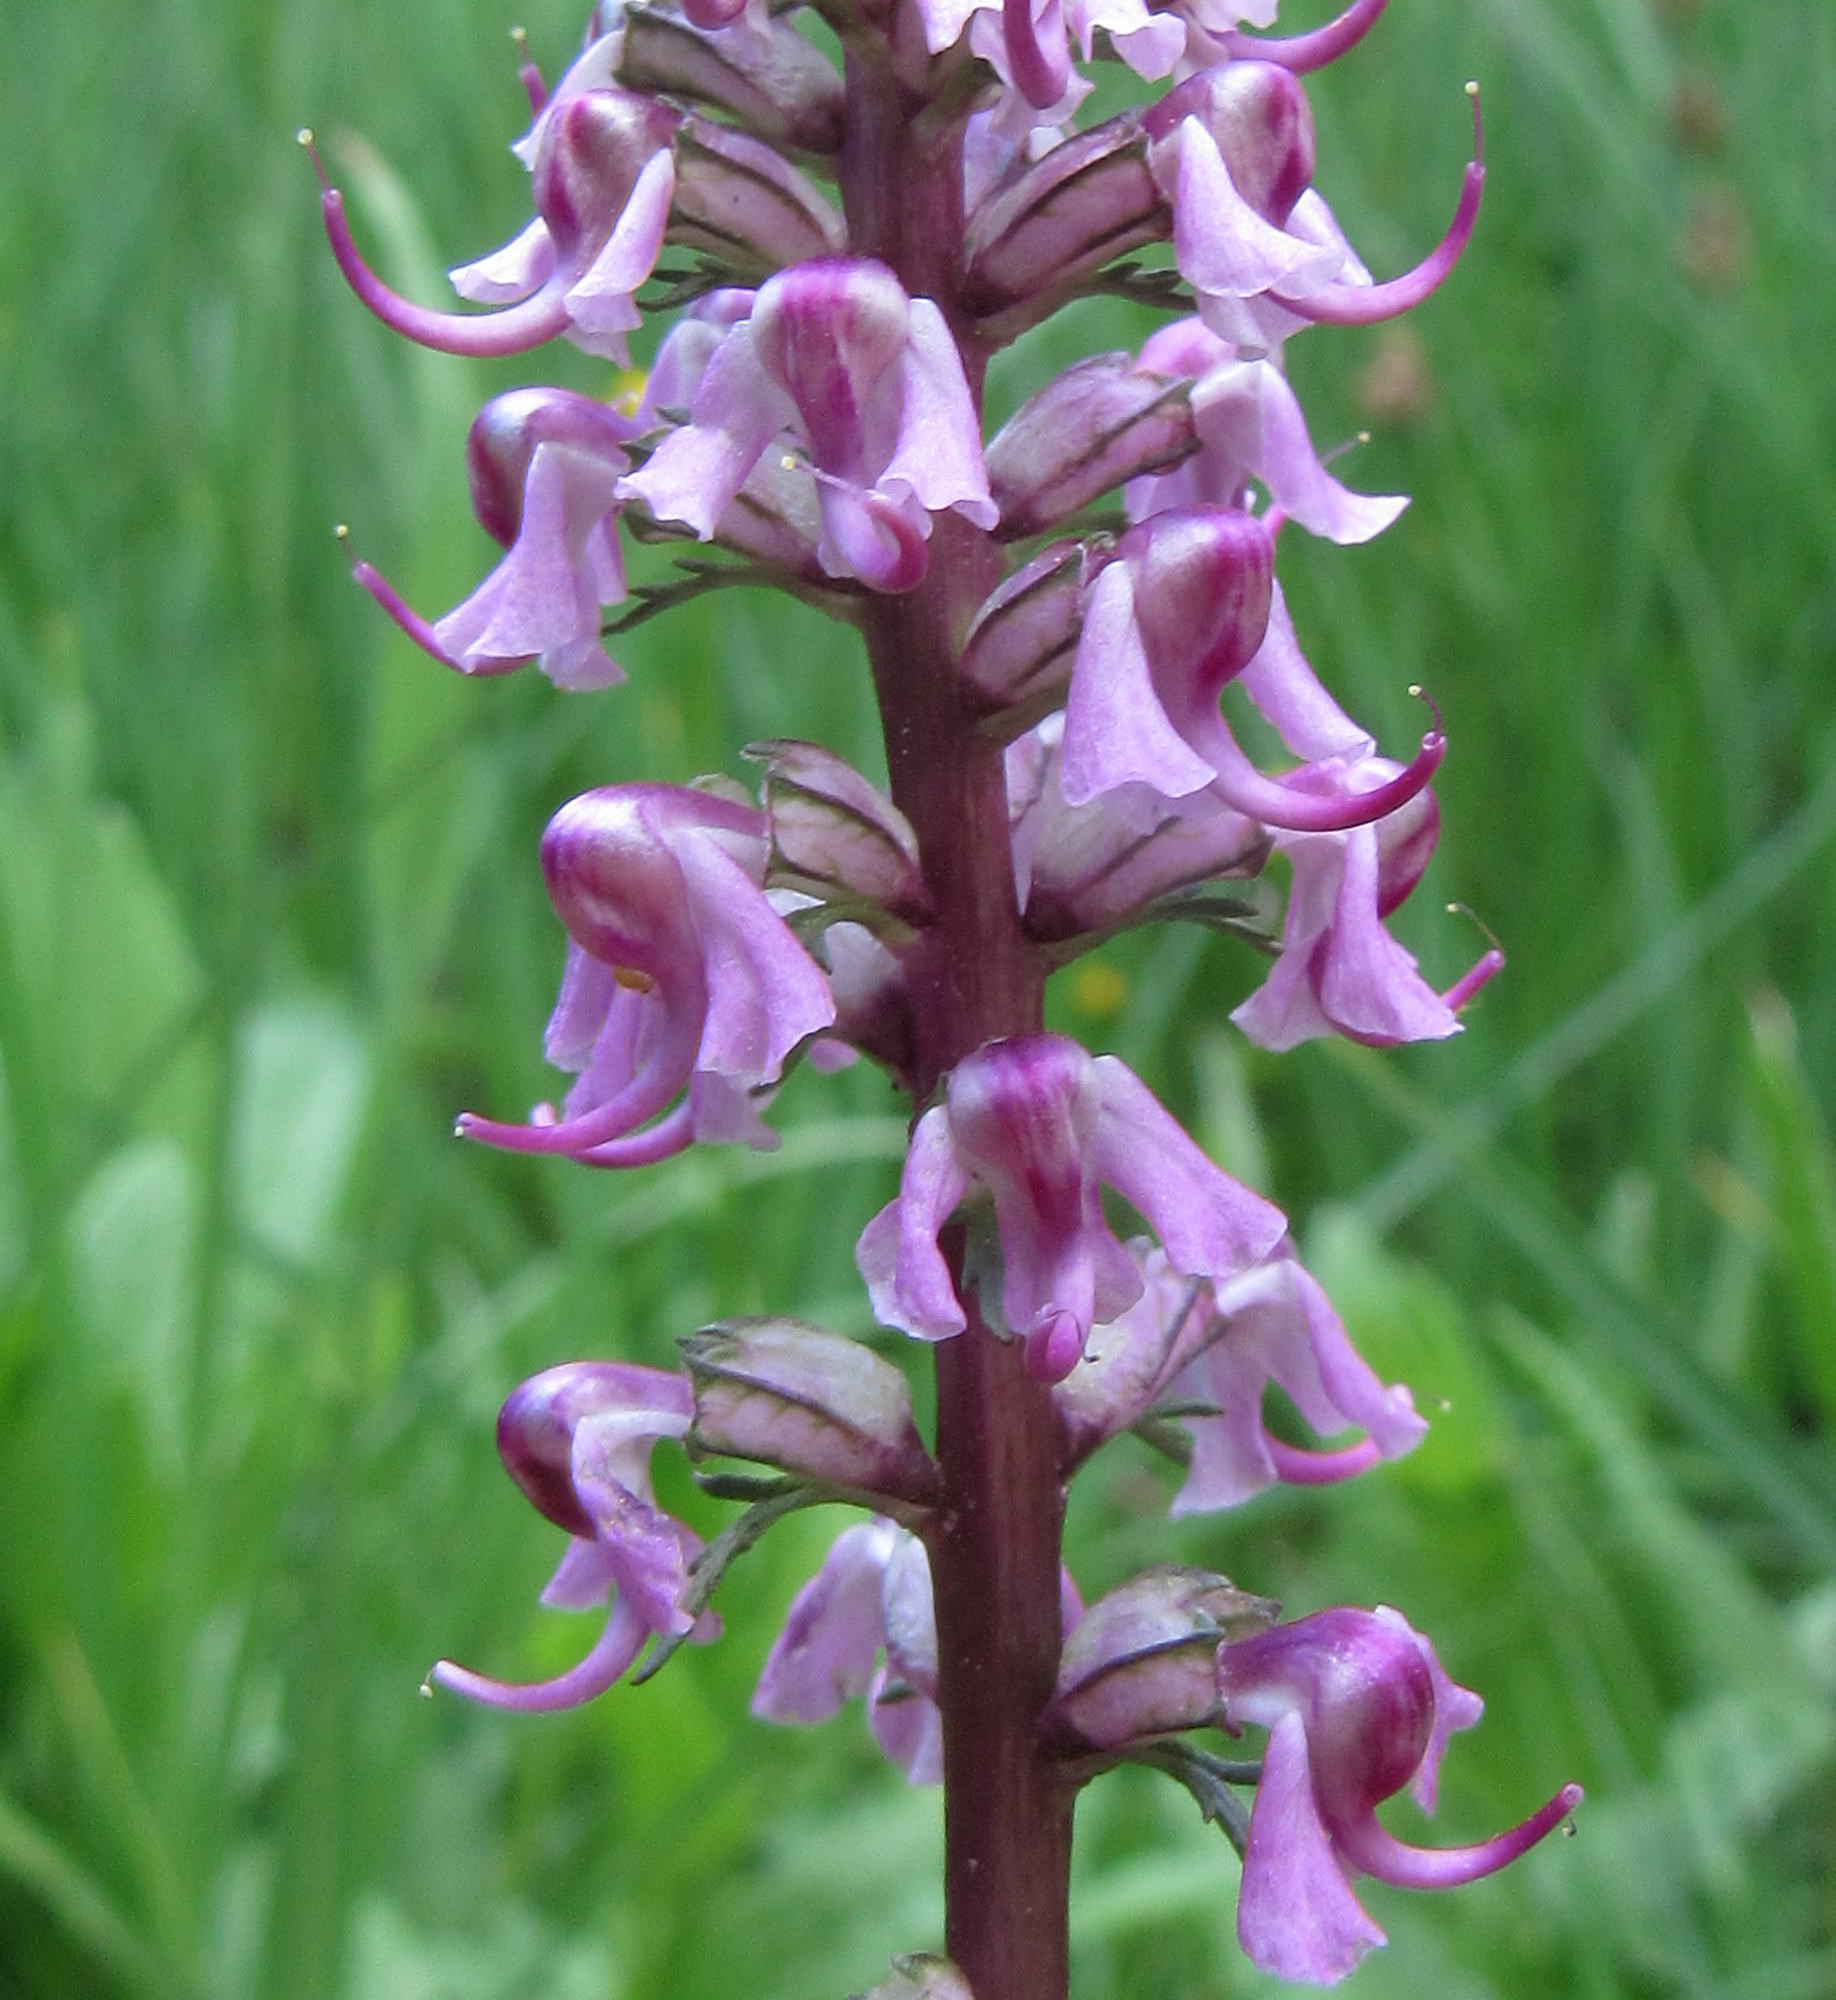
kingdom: Plantae
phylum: Tracheophyta
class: Magnoliopsida
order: Lamiales
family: Orobanchaceae
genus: Pedicularis
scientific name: Pedicularis groenlandica
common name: Elephant's-head
